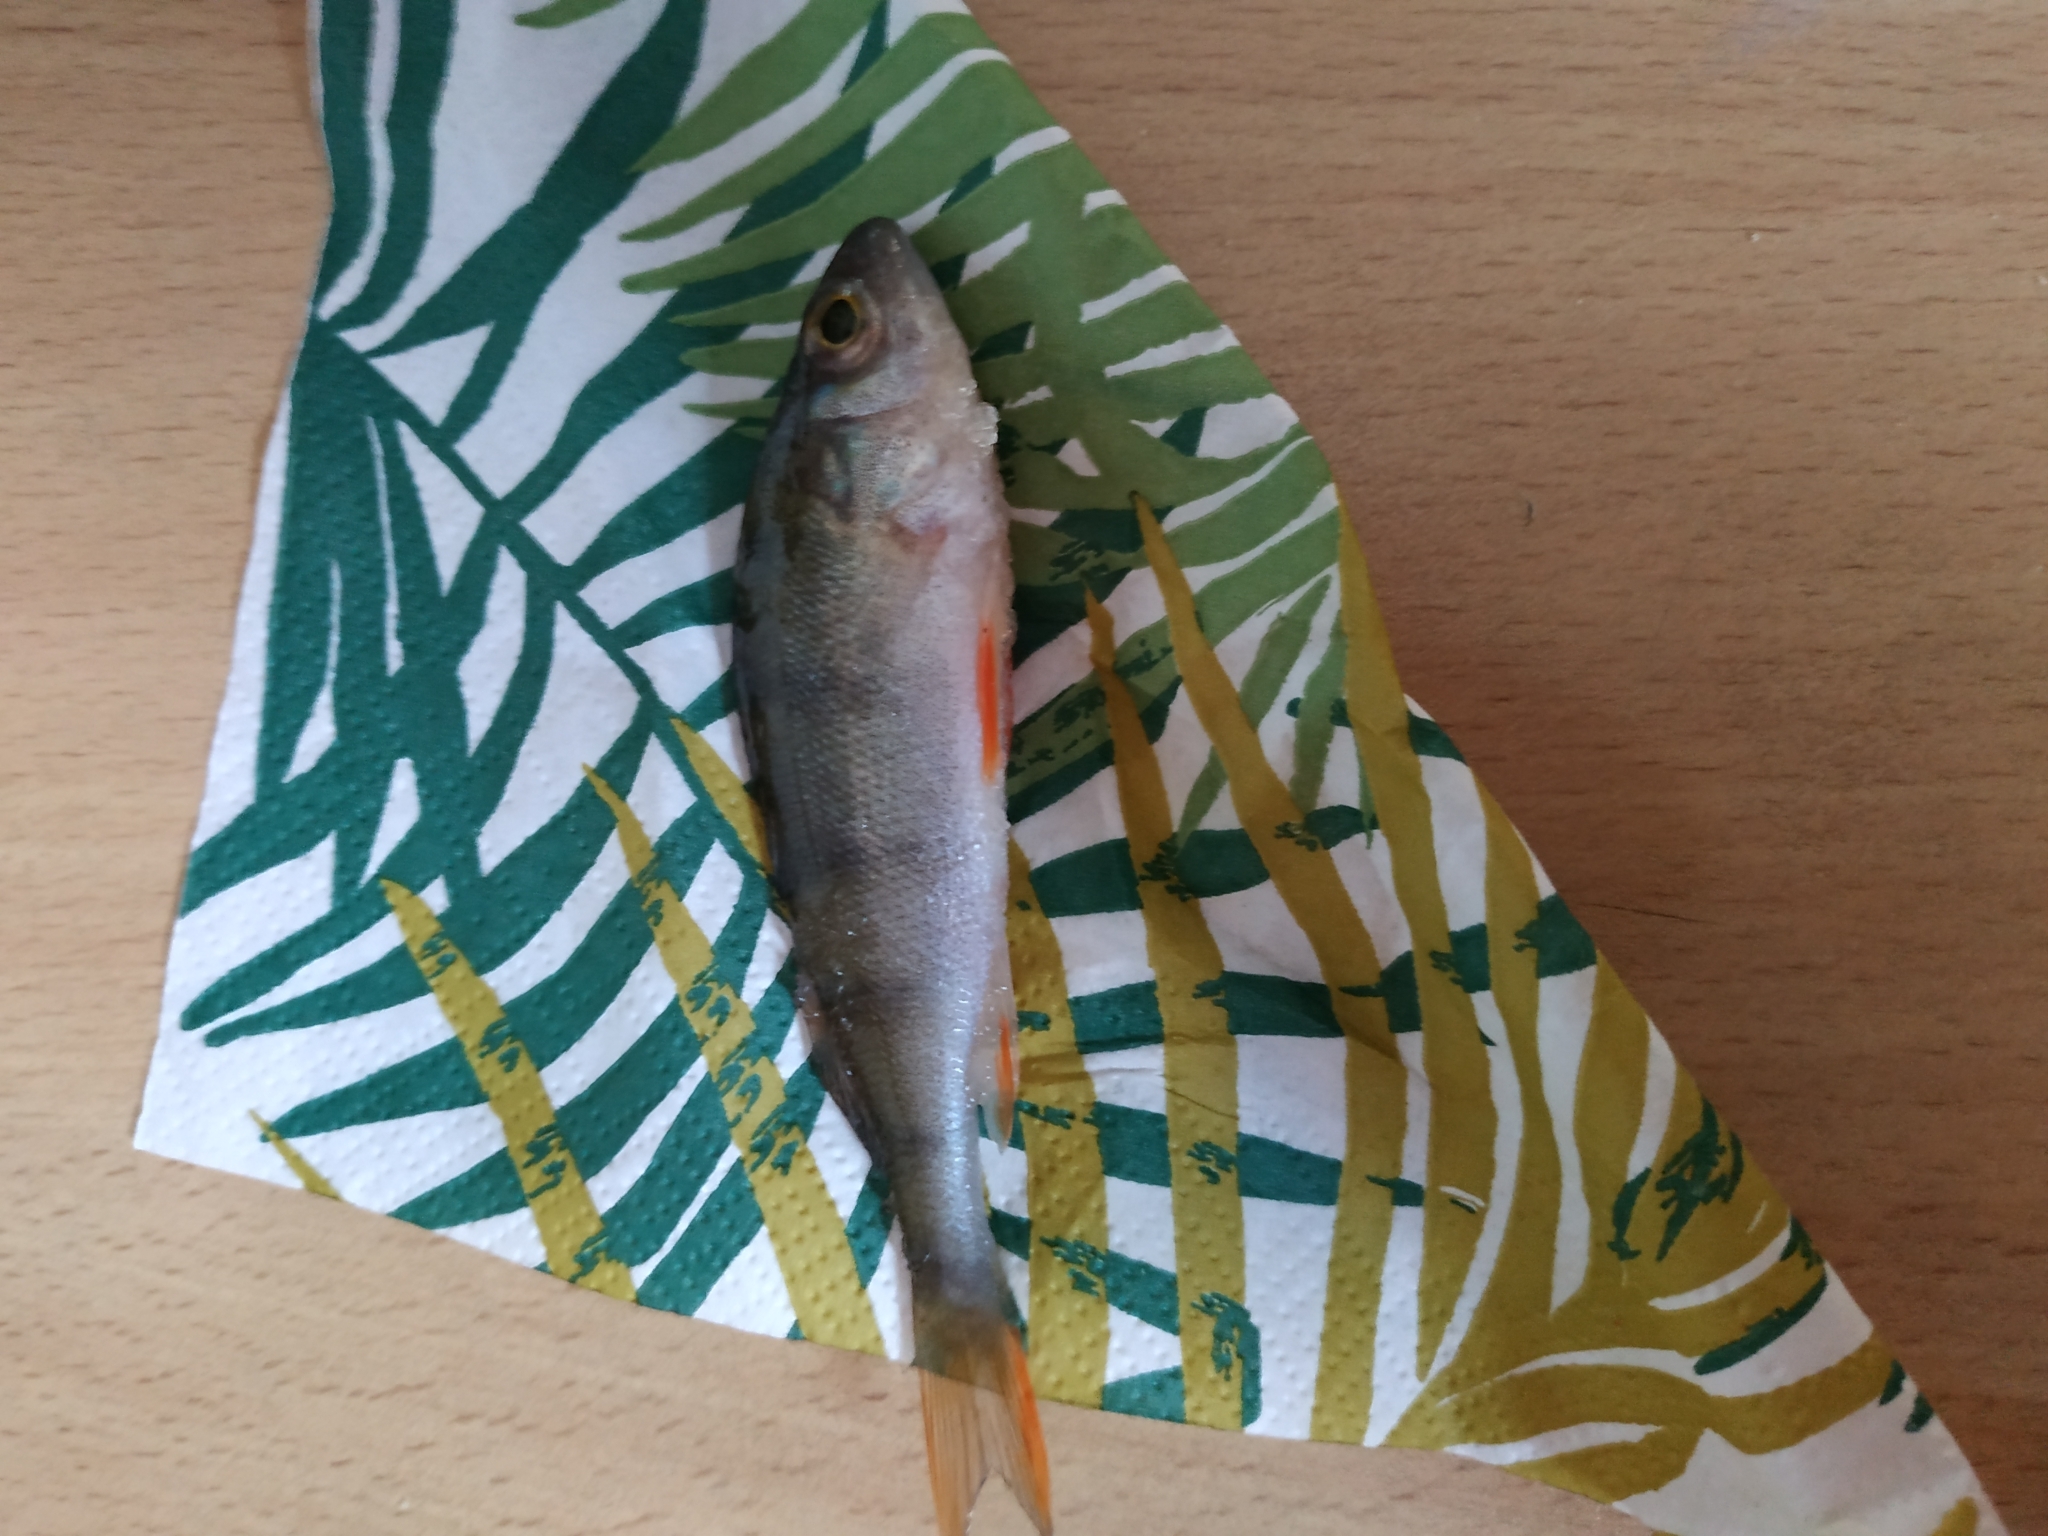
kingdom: Animalia
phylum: Chordata
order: Perciformes
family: Percidae
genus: Perca
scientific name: Perca fluviatilis
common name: Perch
